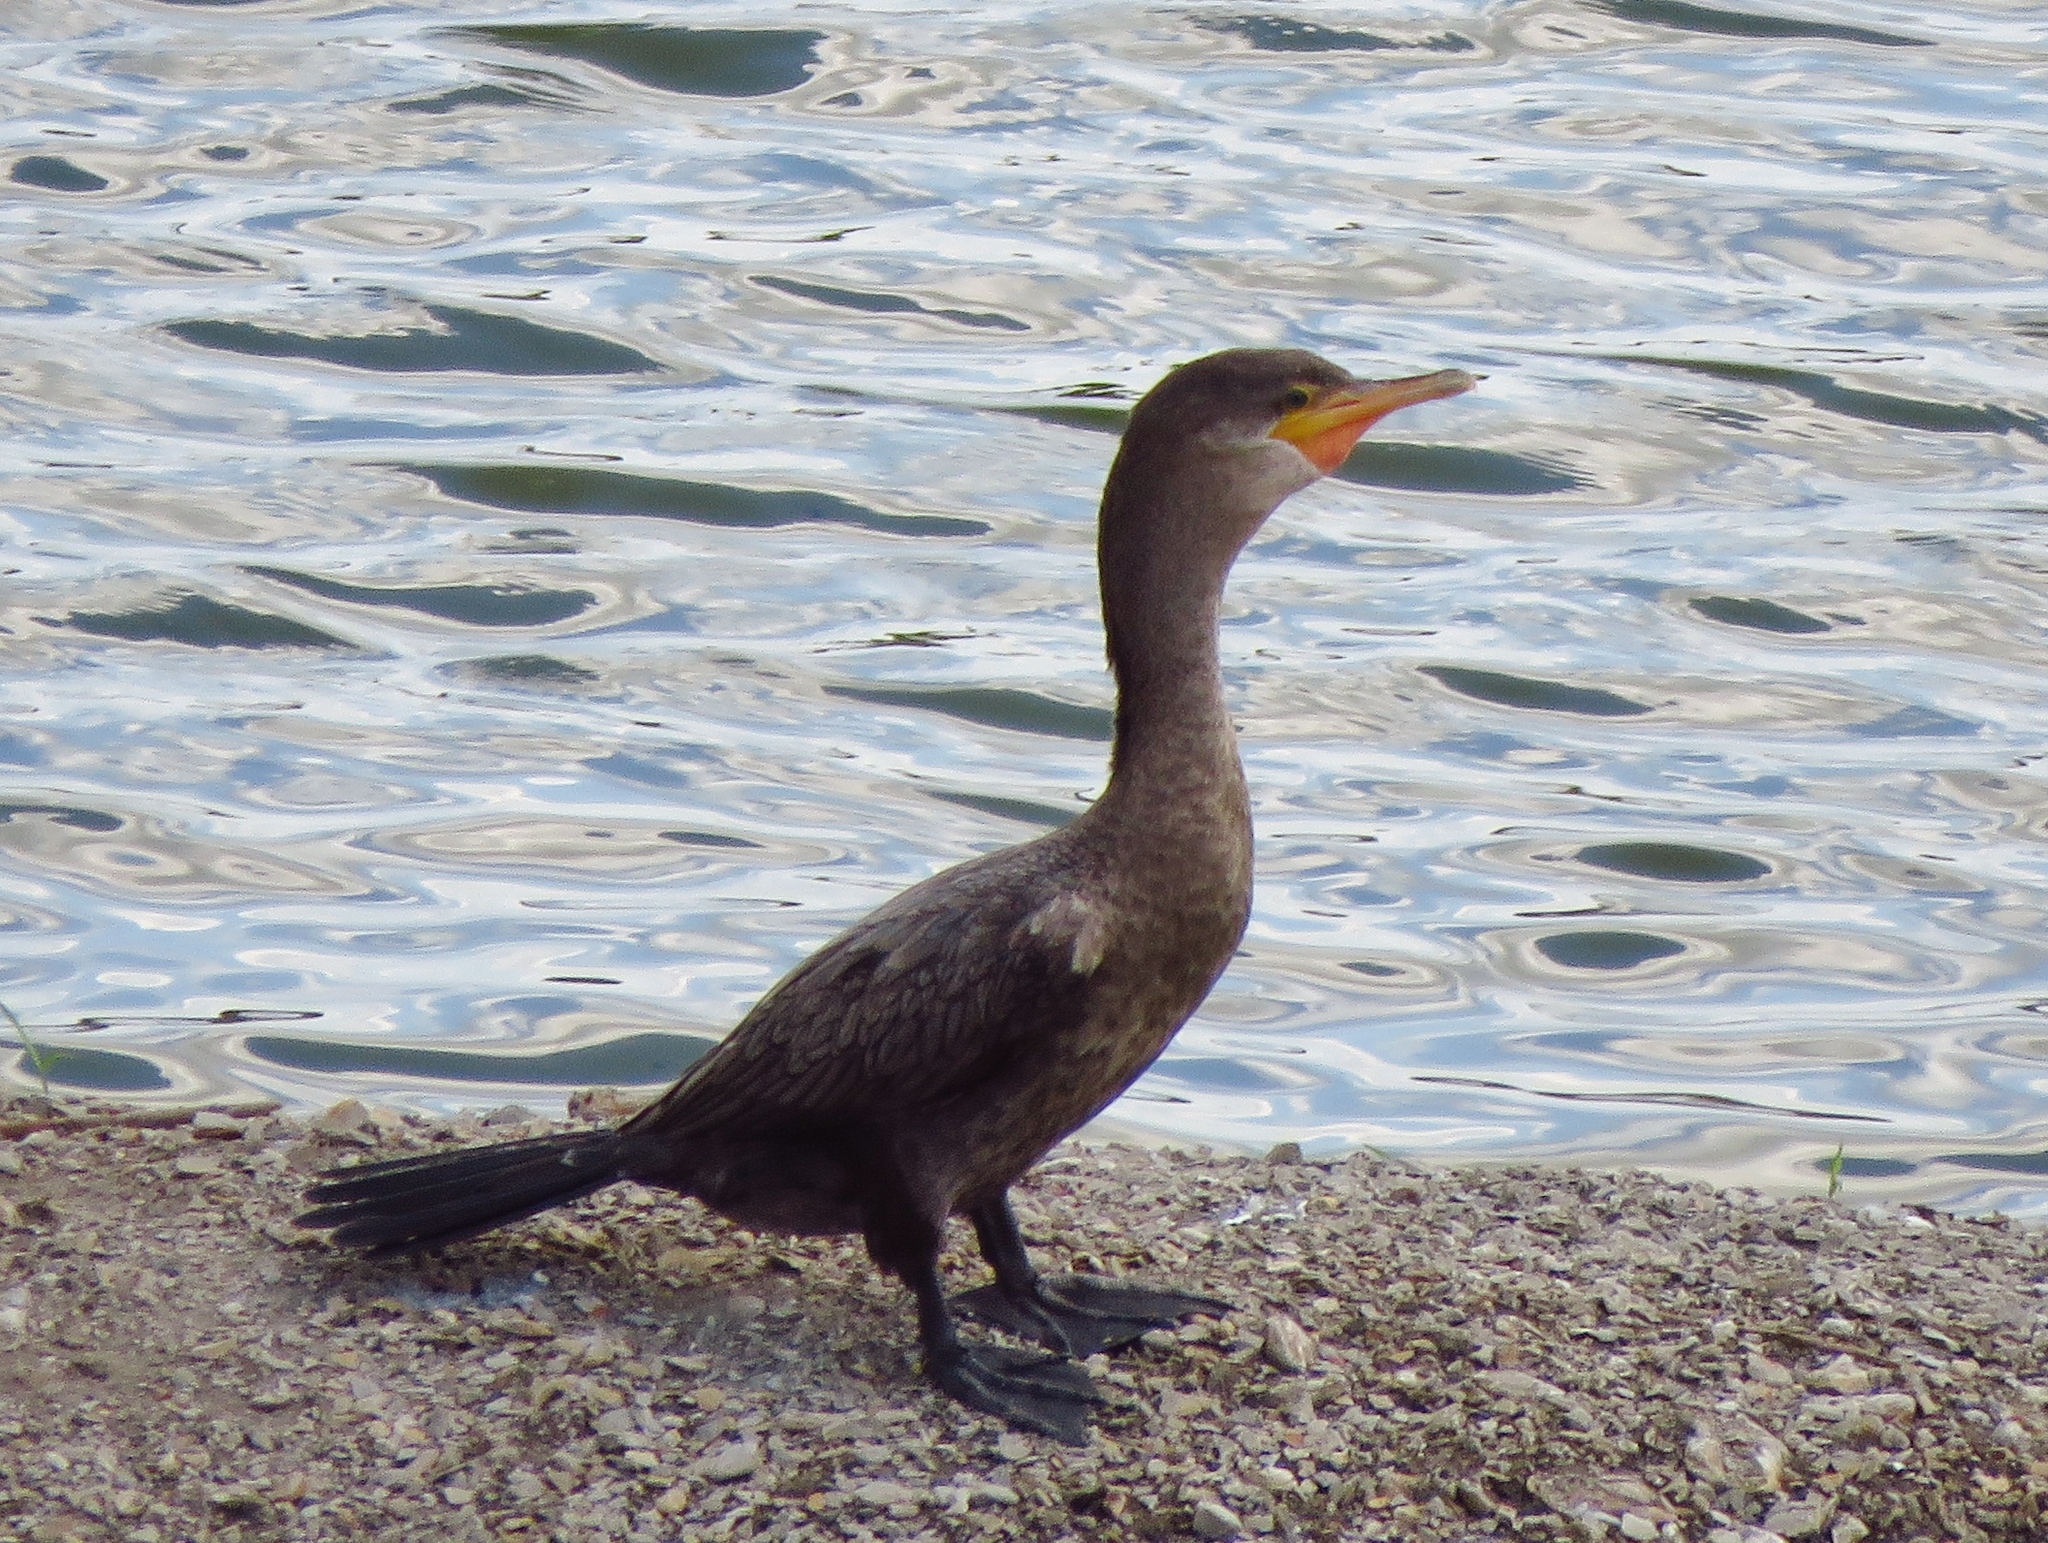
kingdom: Animalia
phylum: Chordata
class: Aves
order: Suliformes
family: Phalacrocoracidae
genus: Phalacrocorax
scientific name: Phalacrocorax auritus
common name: Double-crested cormorant
